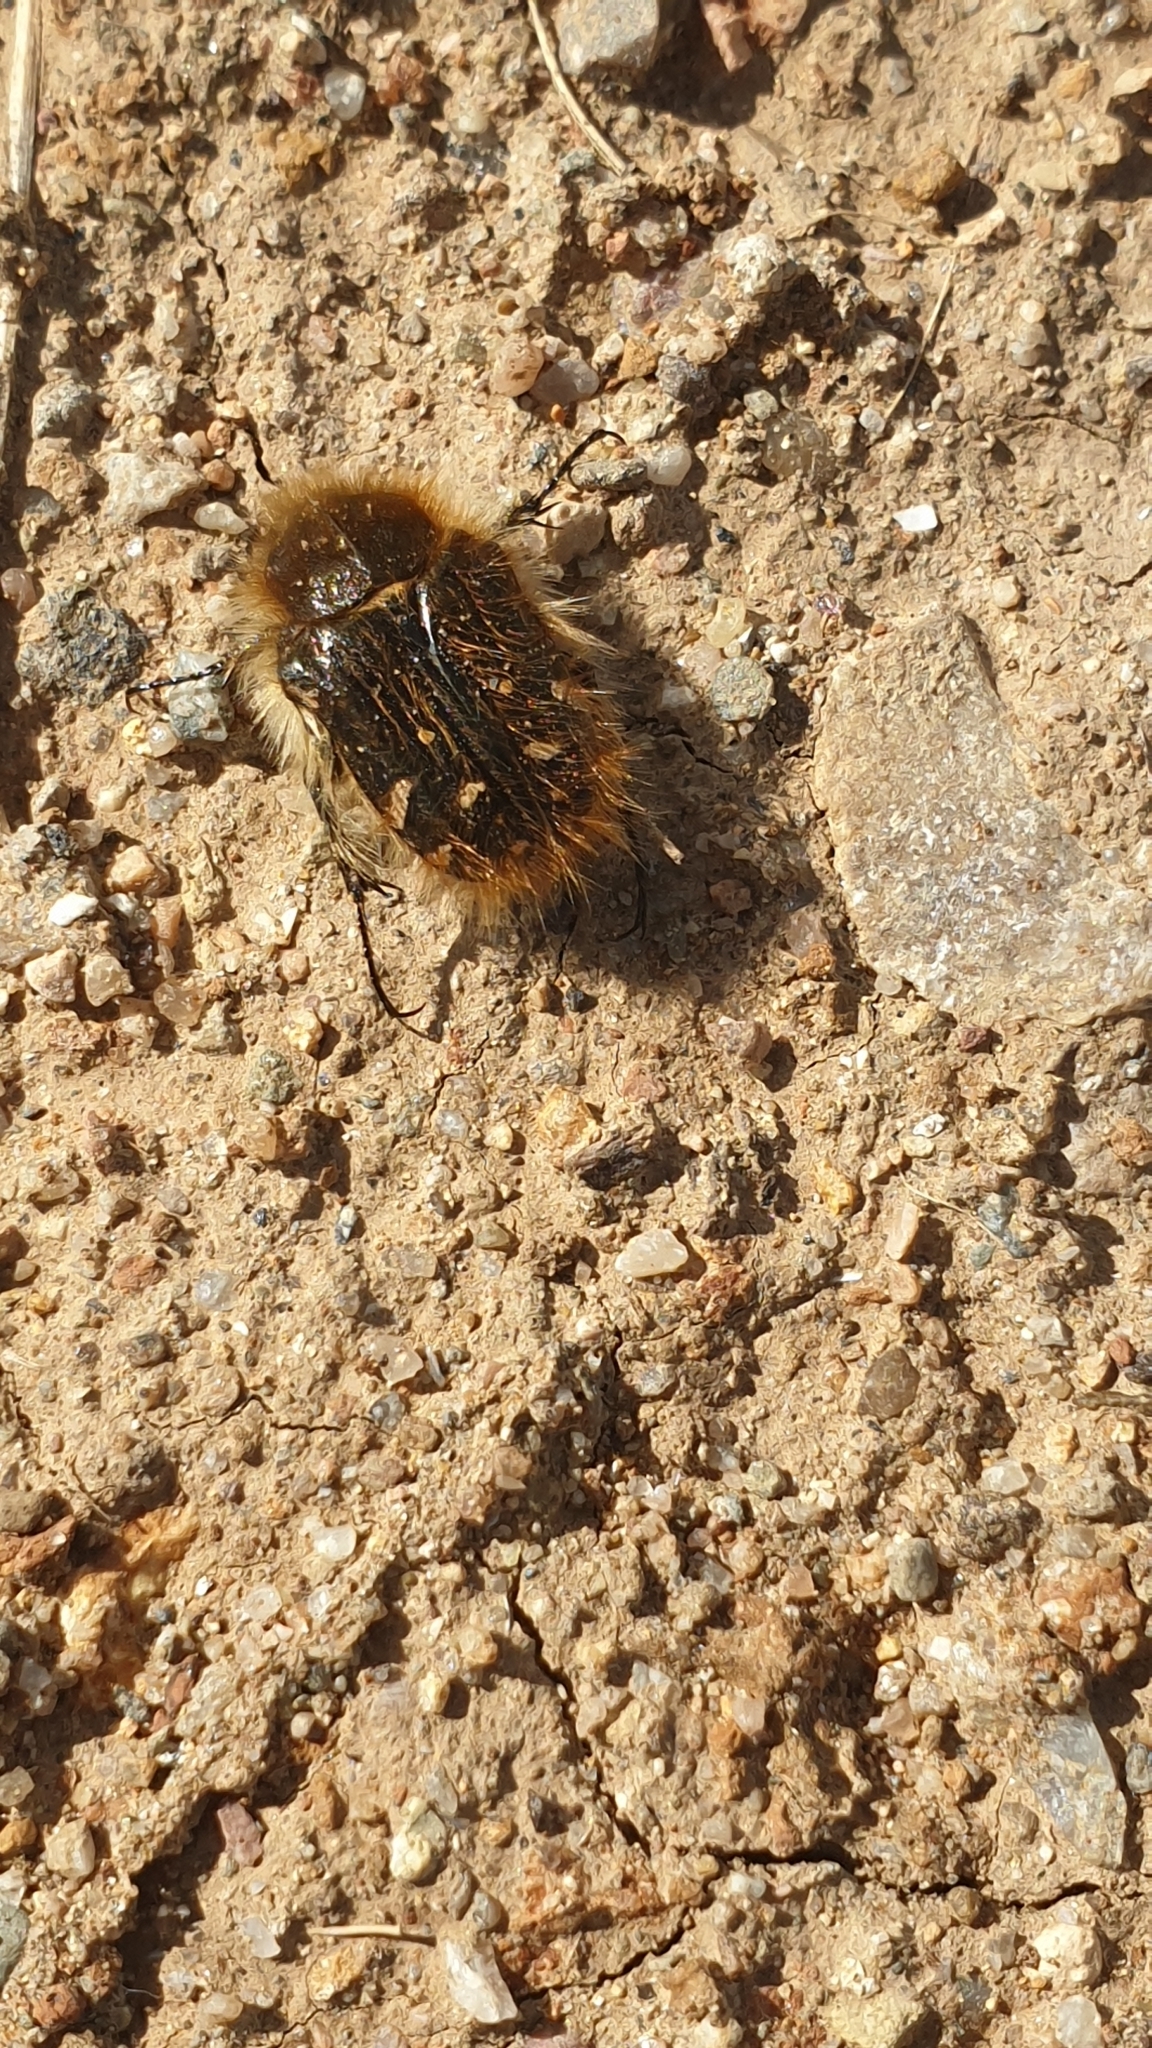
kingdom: Animalia
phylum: Arthropoda
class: Insecta
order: Coleoptera
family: Scarabaeidae
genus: Tropinota
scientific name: Tropinota squalida
